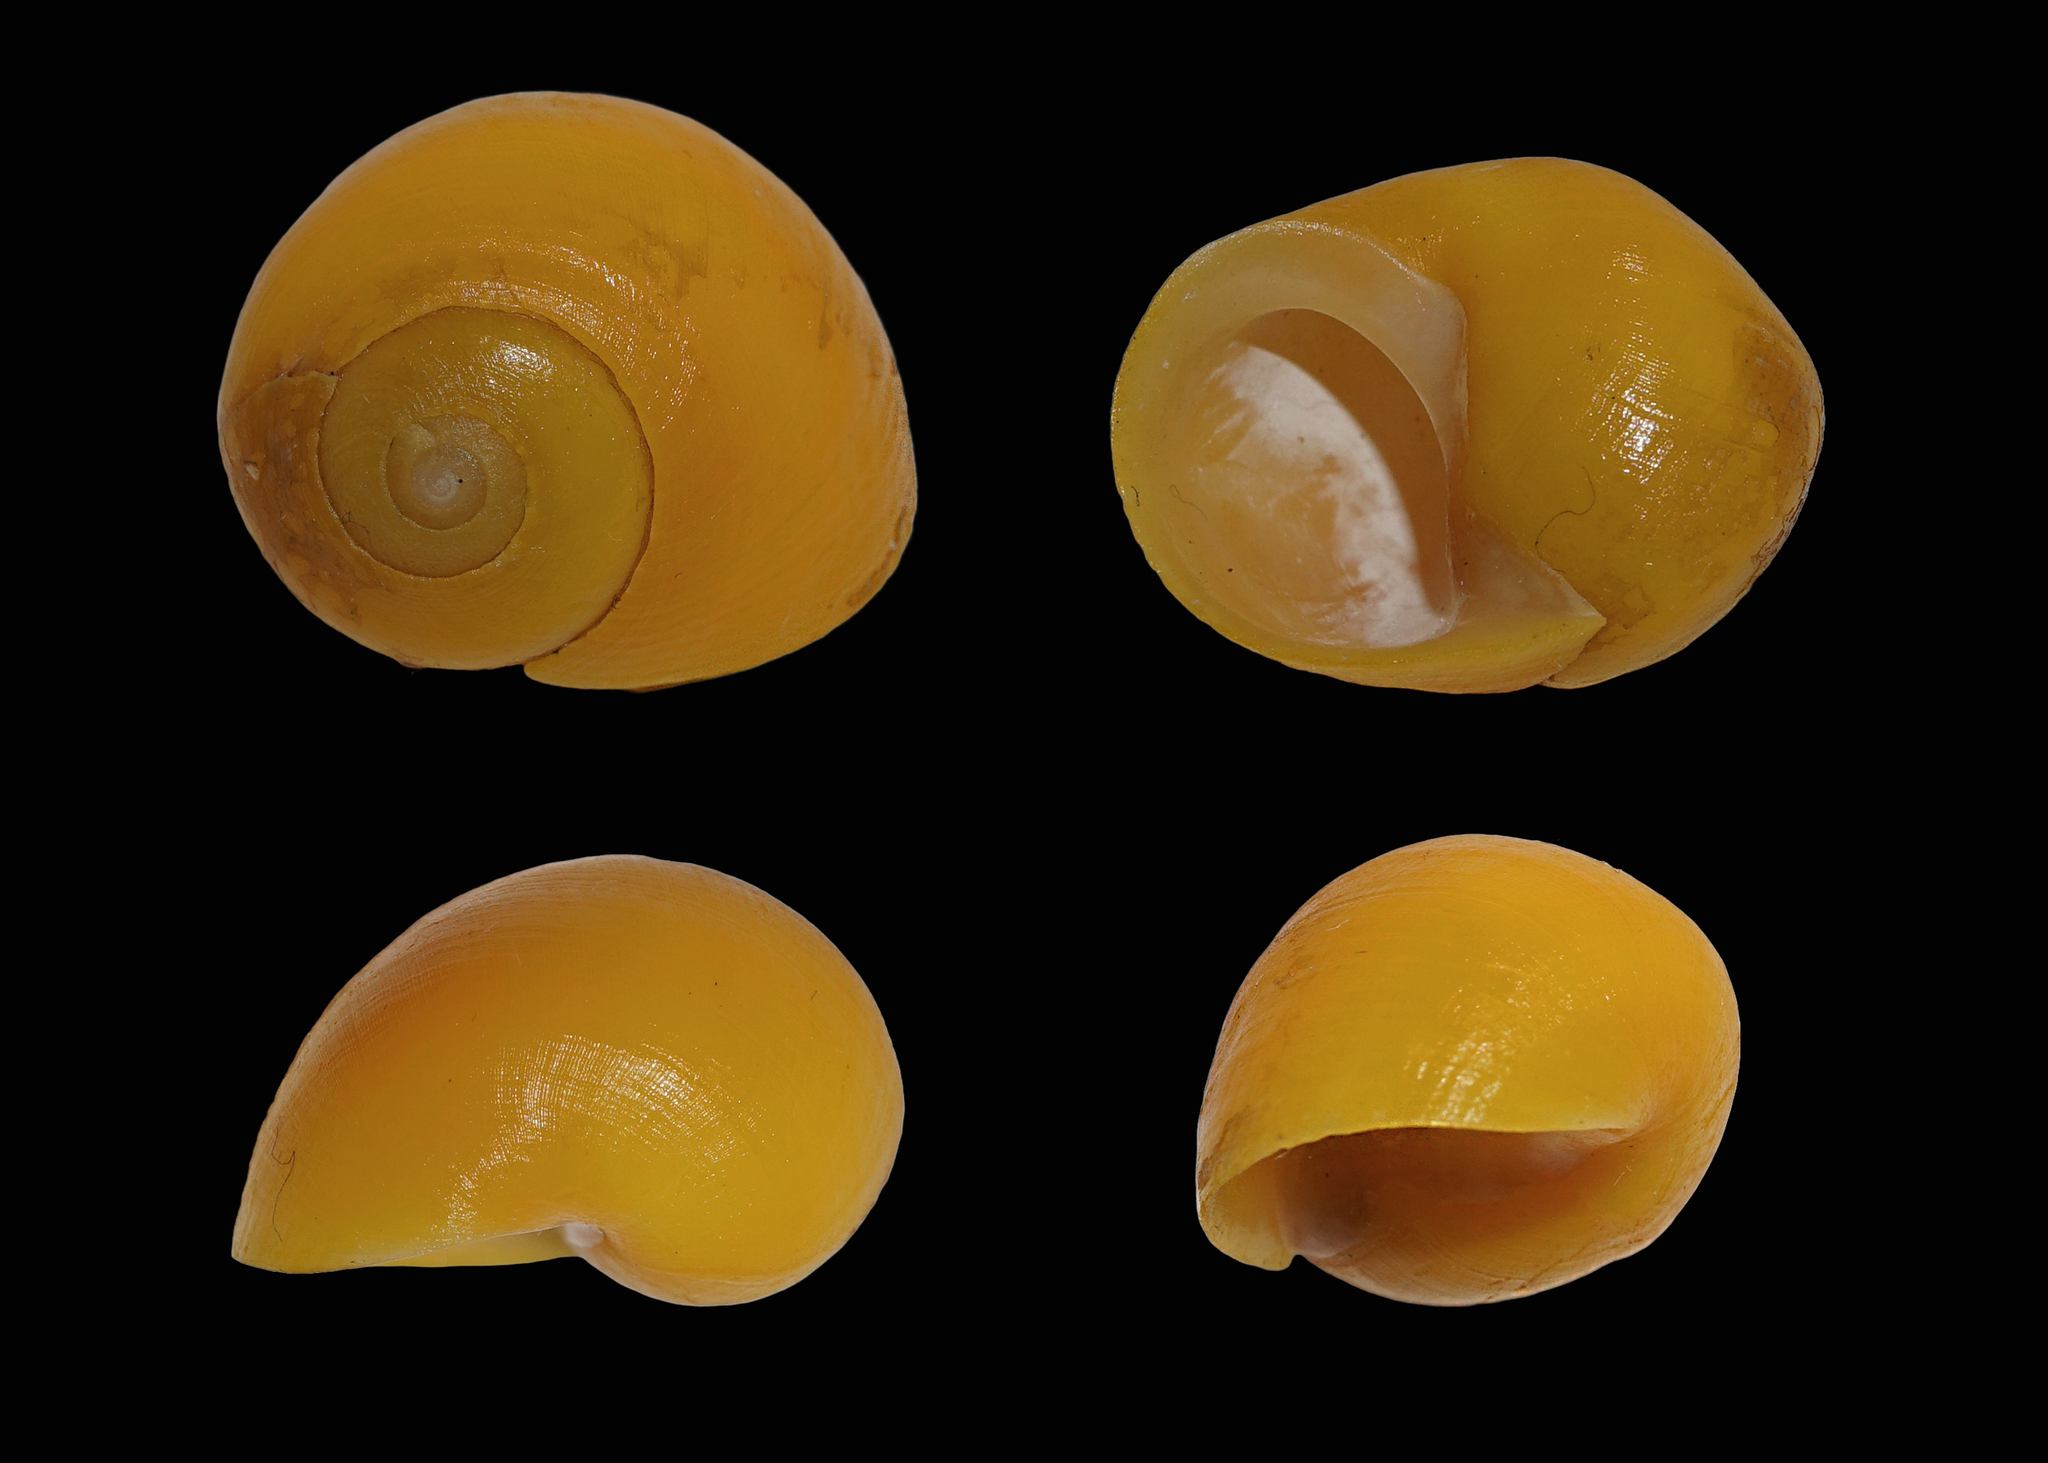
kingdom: Animalia
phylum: Mollusca
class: Gastropoda
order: Littorinimorpha
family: Littorinidae
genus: Littorina
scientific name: Littorina
